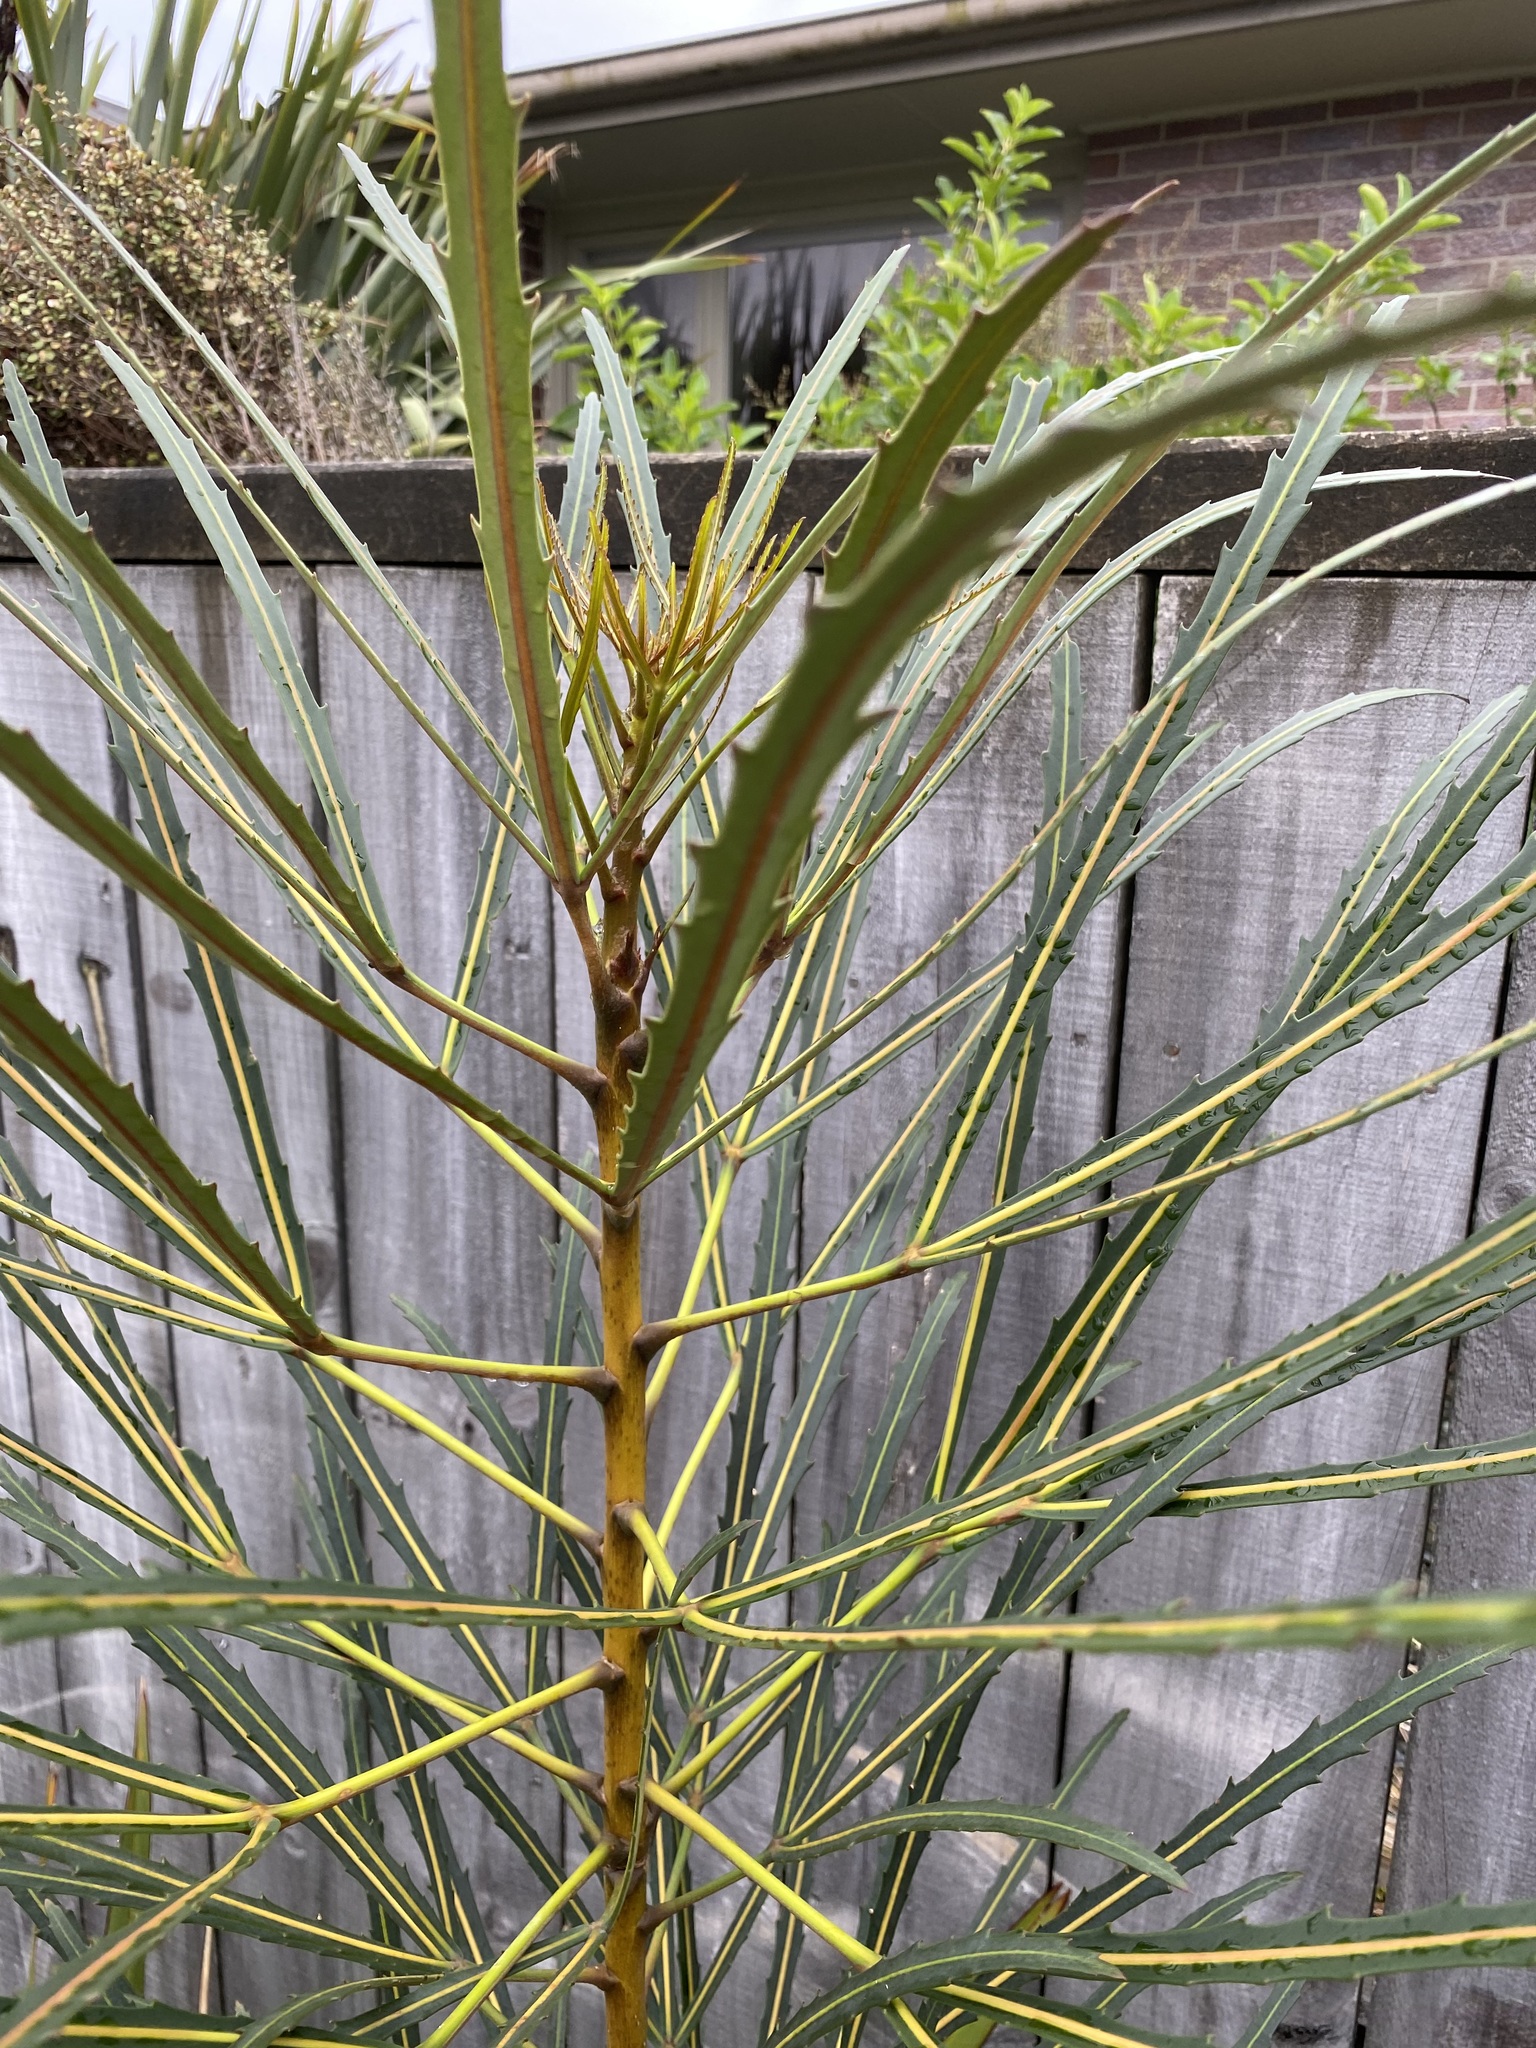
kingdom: Plantae
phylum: Tracheophyta
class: Magnoliopsida
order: Apiales
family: Araliaceae
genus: Pseudopanax
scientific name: Pseudopanax
